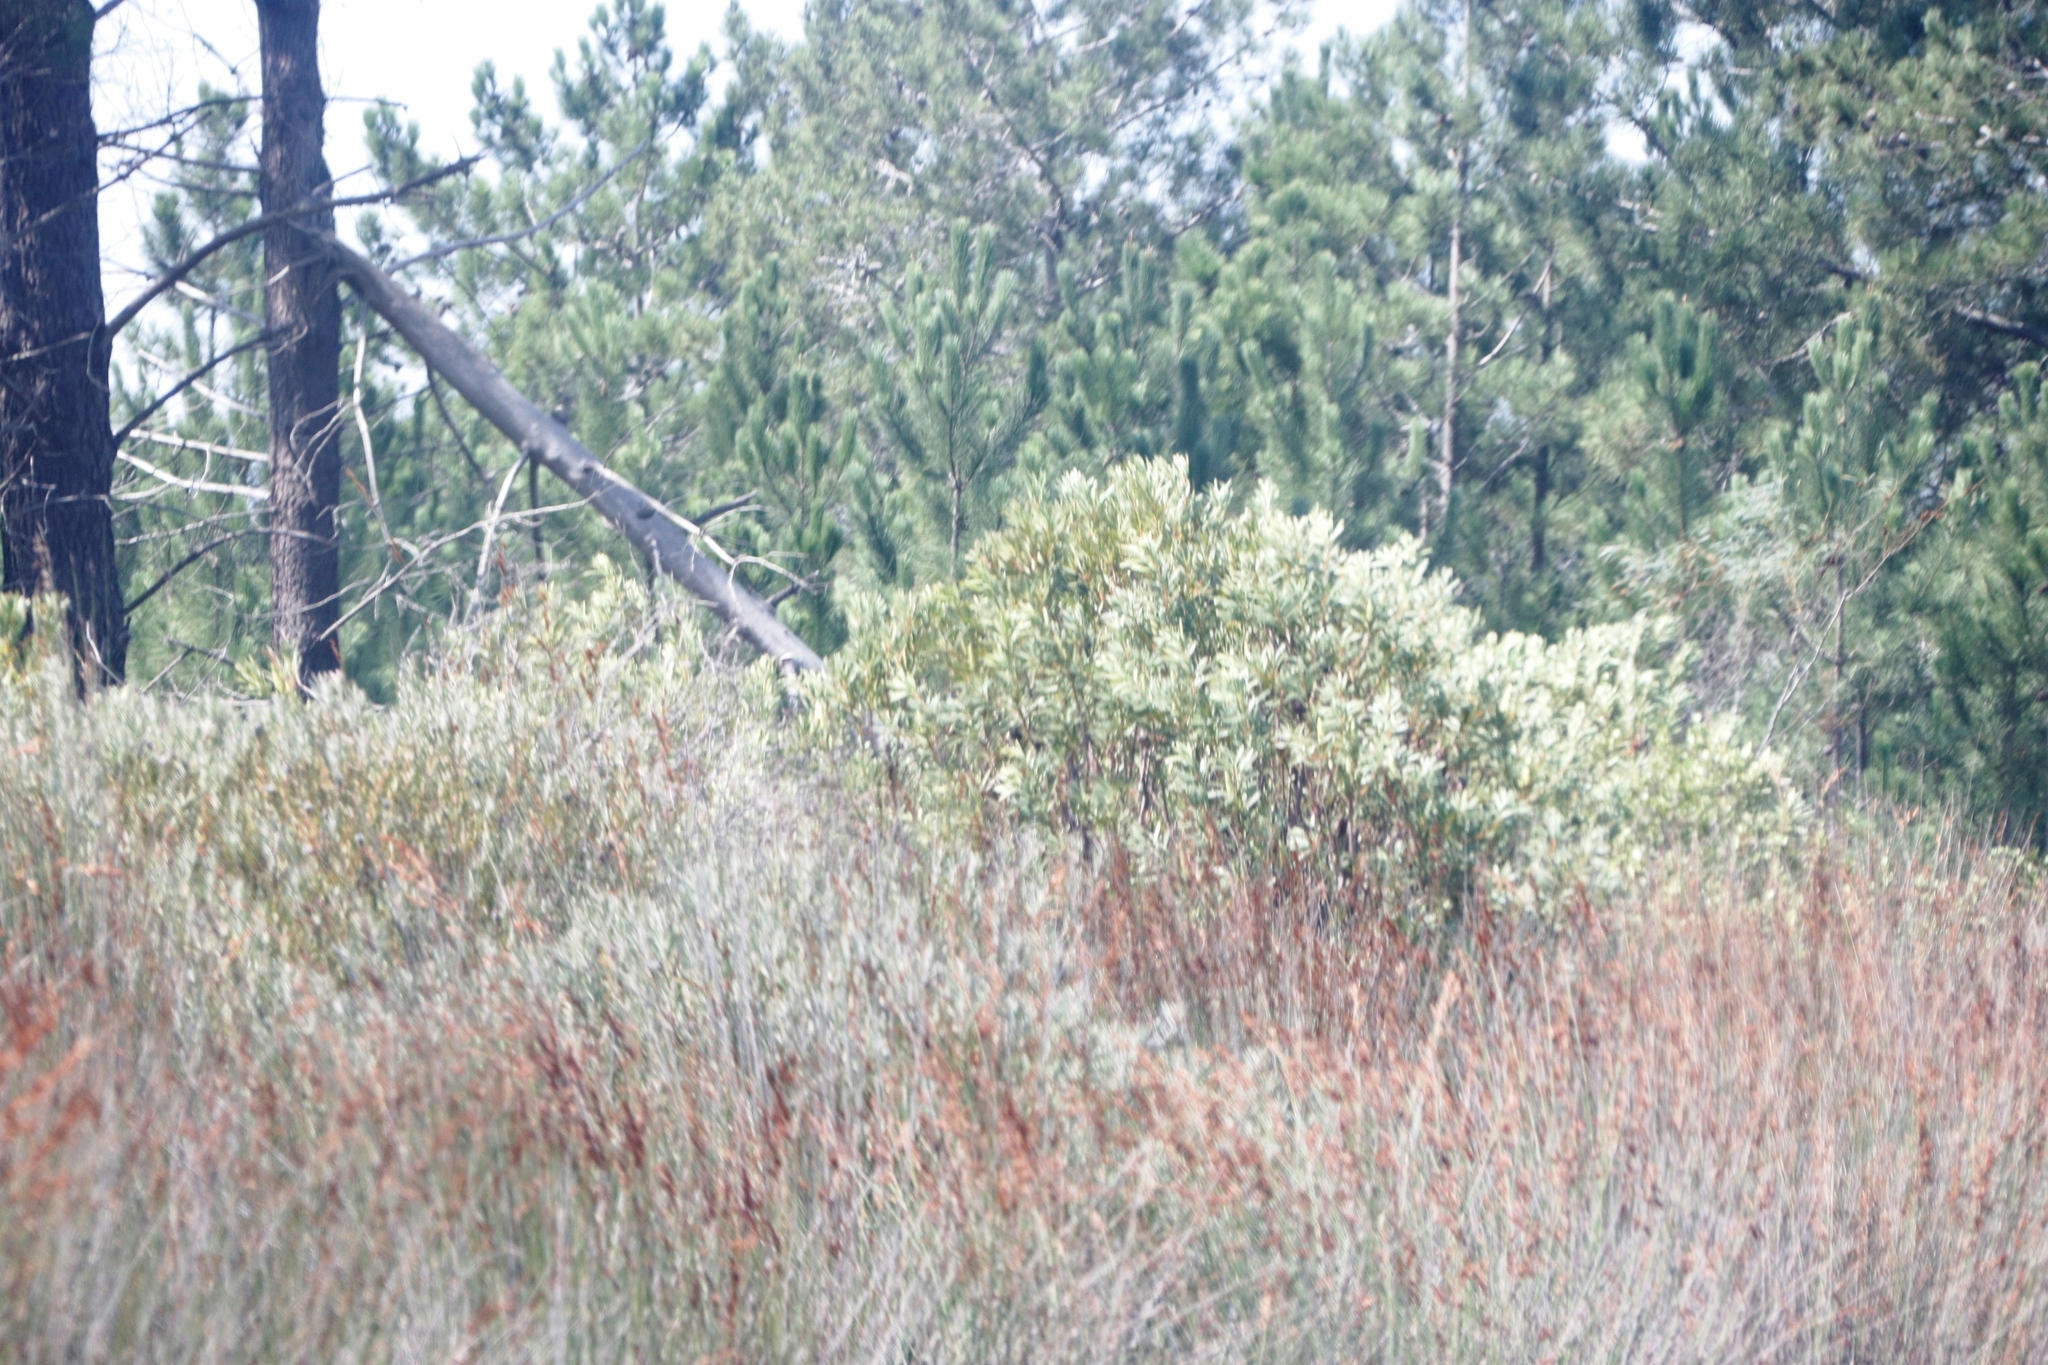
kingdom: Plantae
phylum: Tracheophyta
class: Magnoliopsida
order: Proteales
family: Proteaceae
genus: Protea
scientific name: Protea susannae
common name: Foetid-leaf sugarbush
